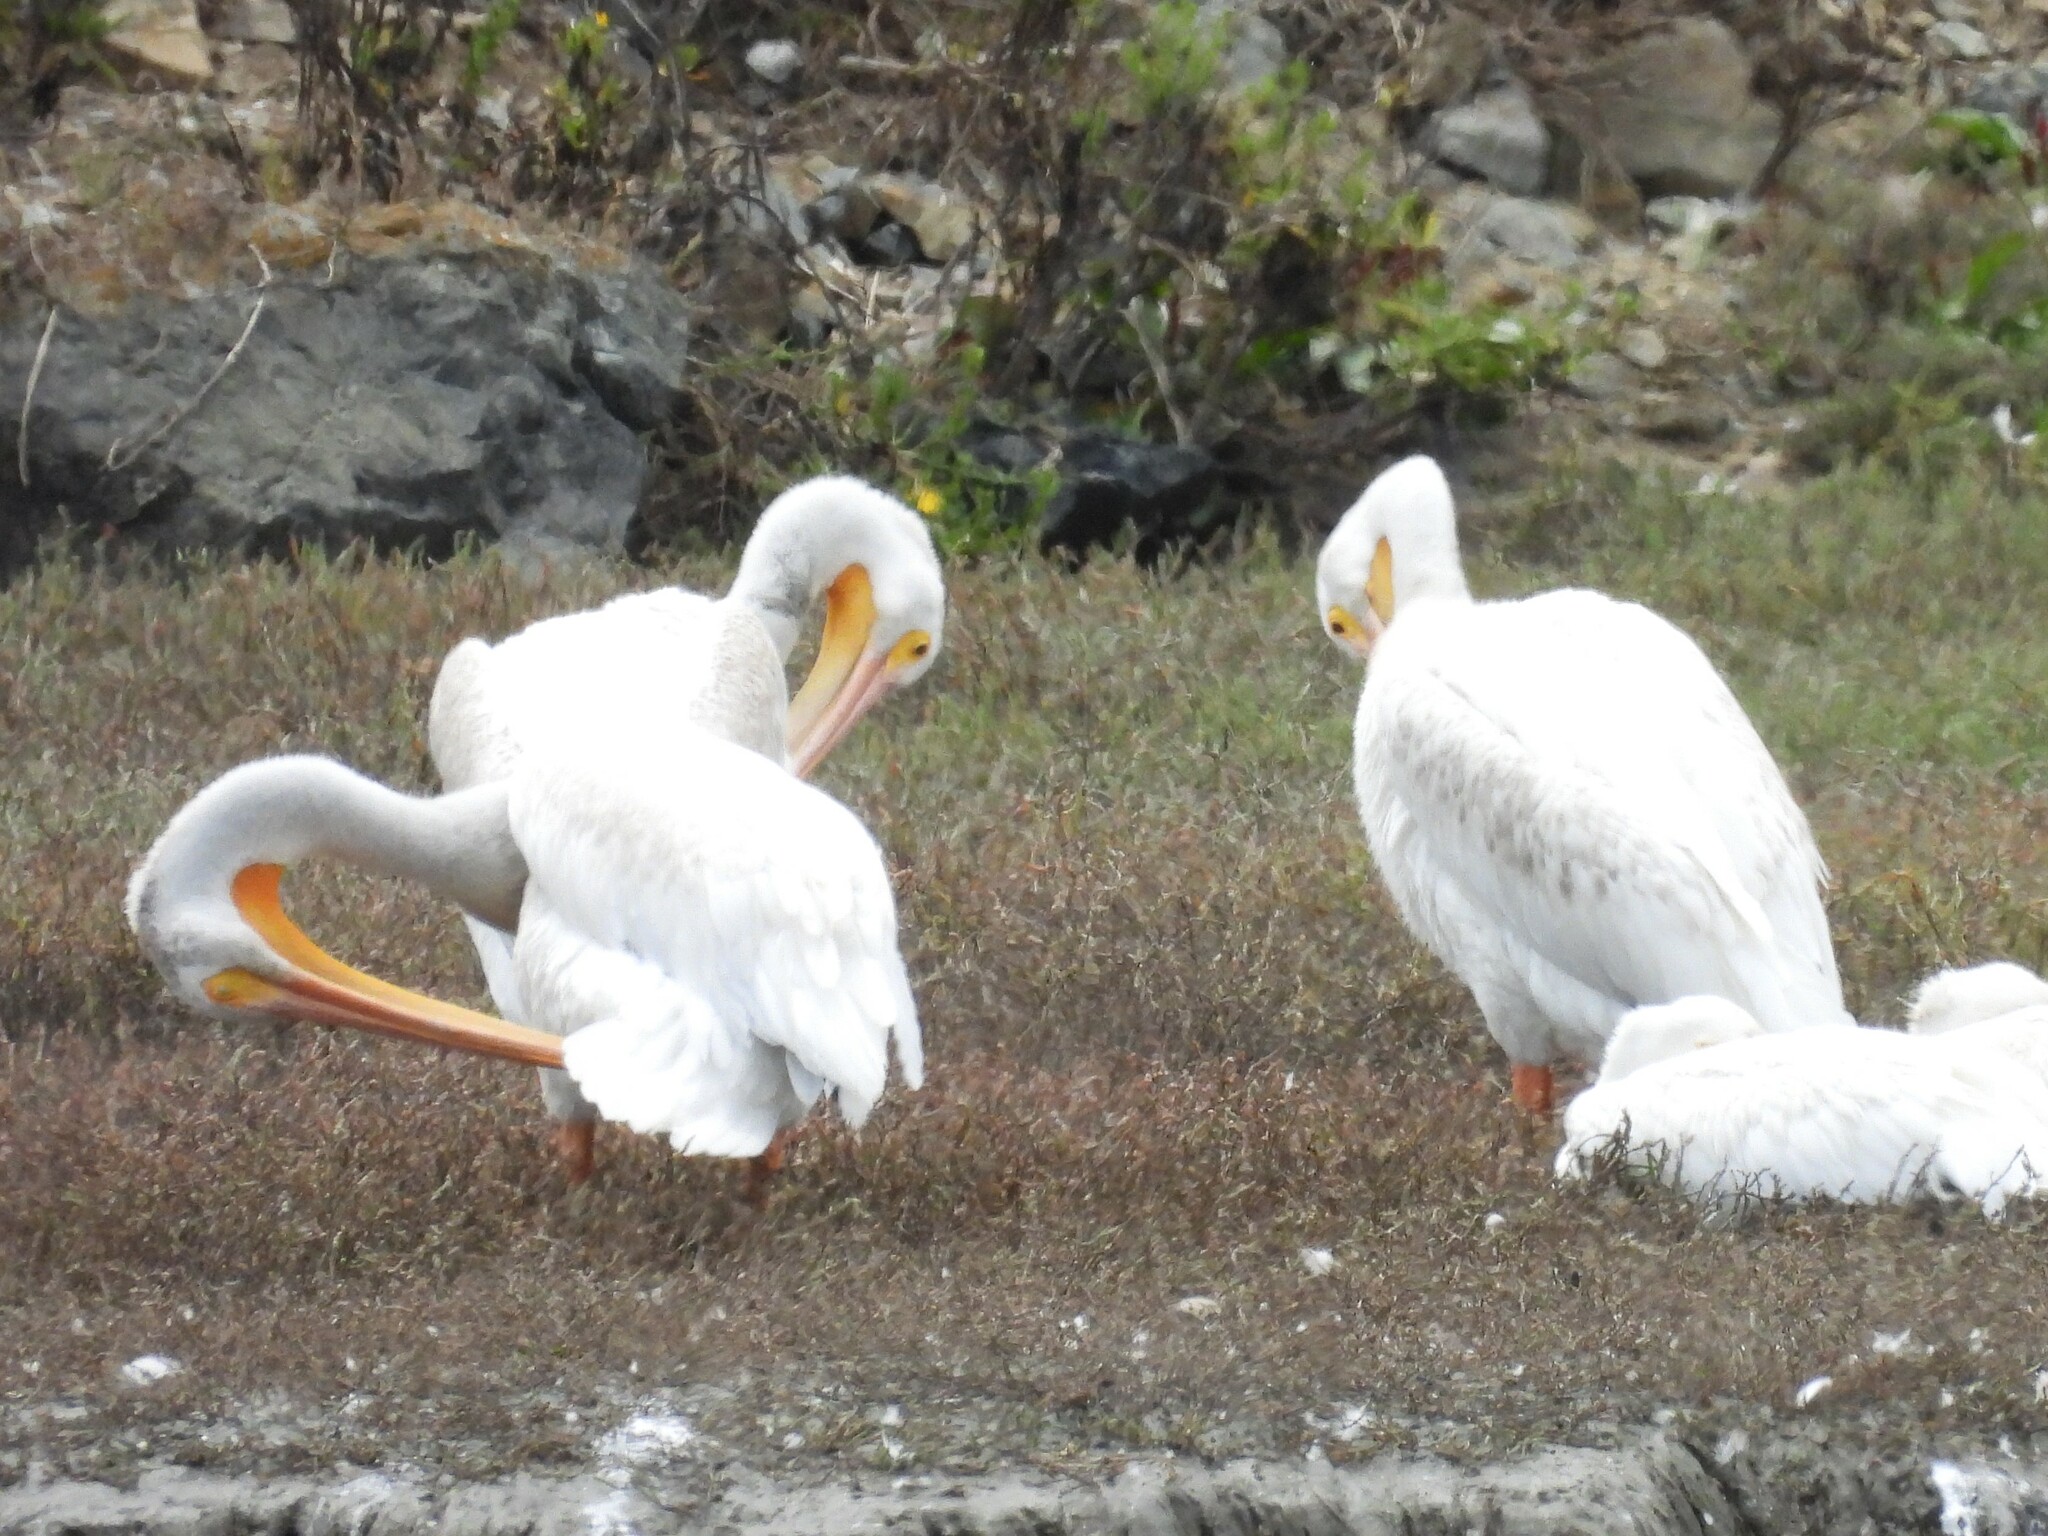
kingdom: Animalia
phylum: Chordata
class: Aves
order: Pelecaniformes
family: Pelecanidae
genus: Pelecanus
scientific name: Pelecanus erythrorhynchos
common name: American white pelican
